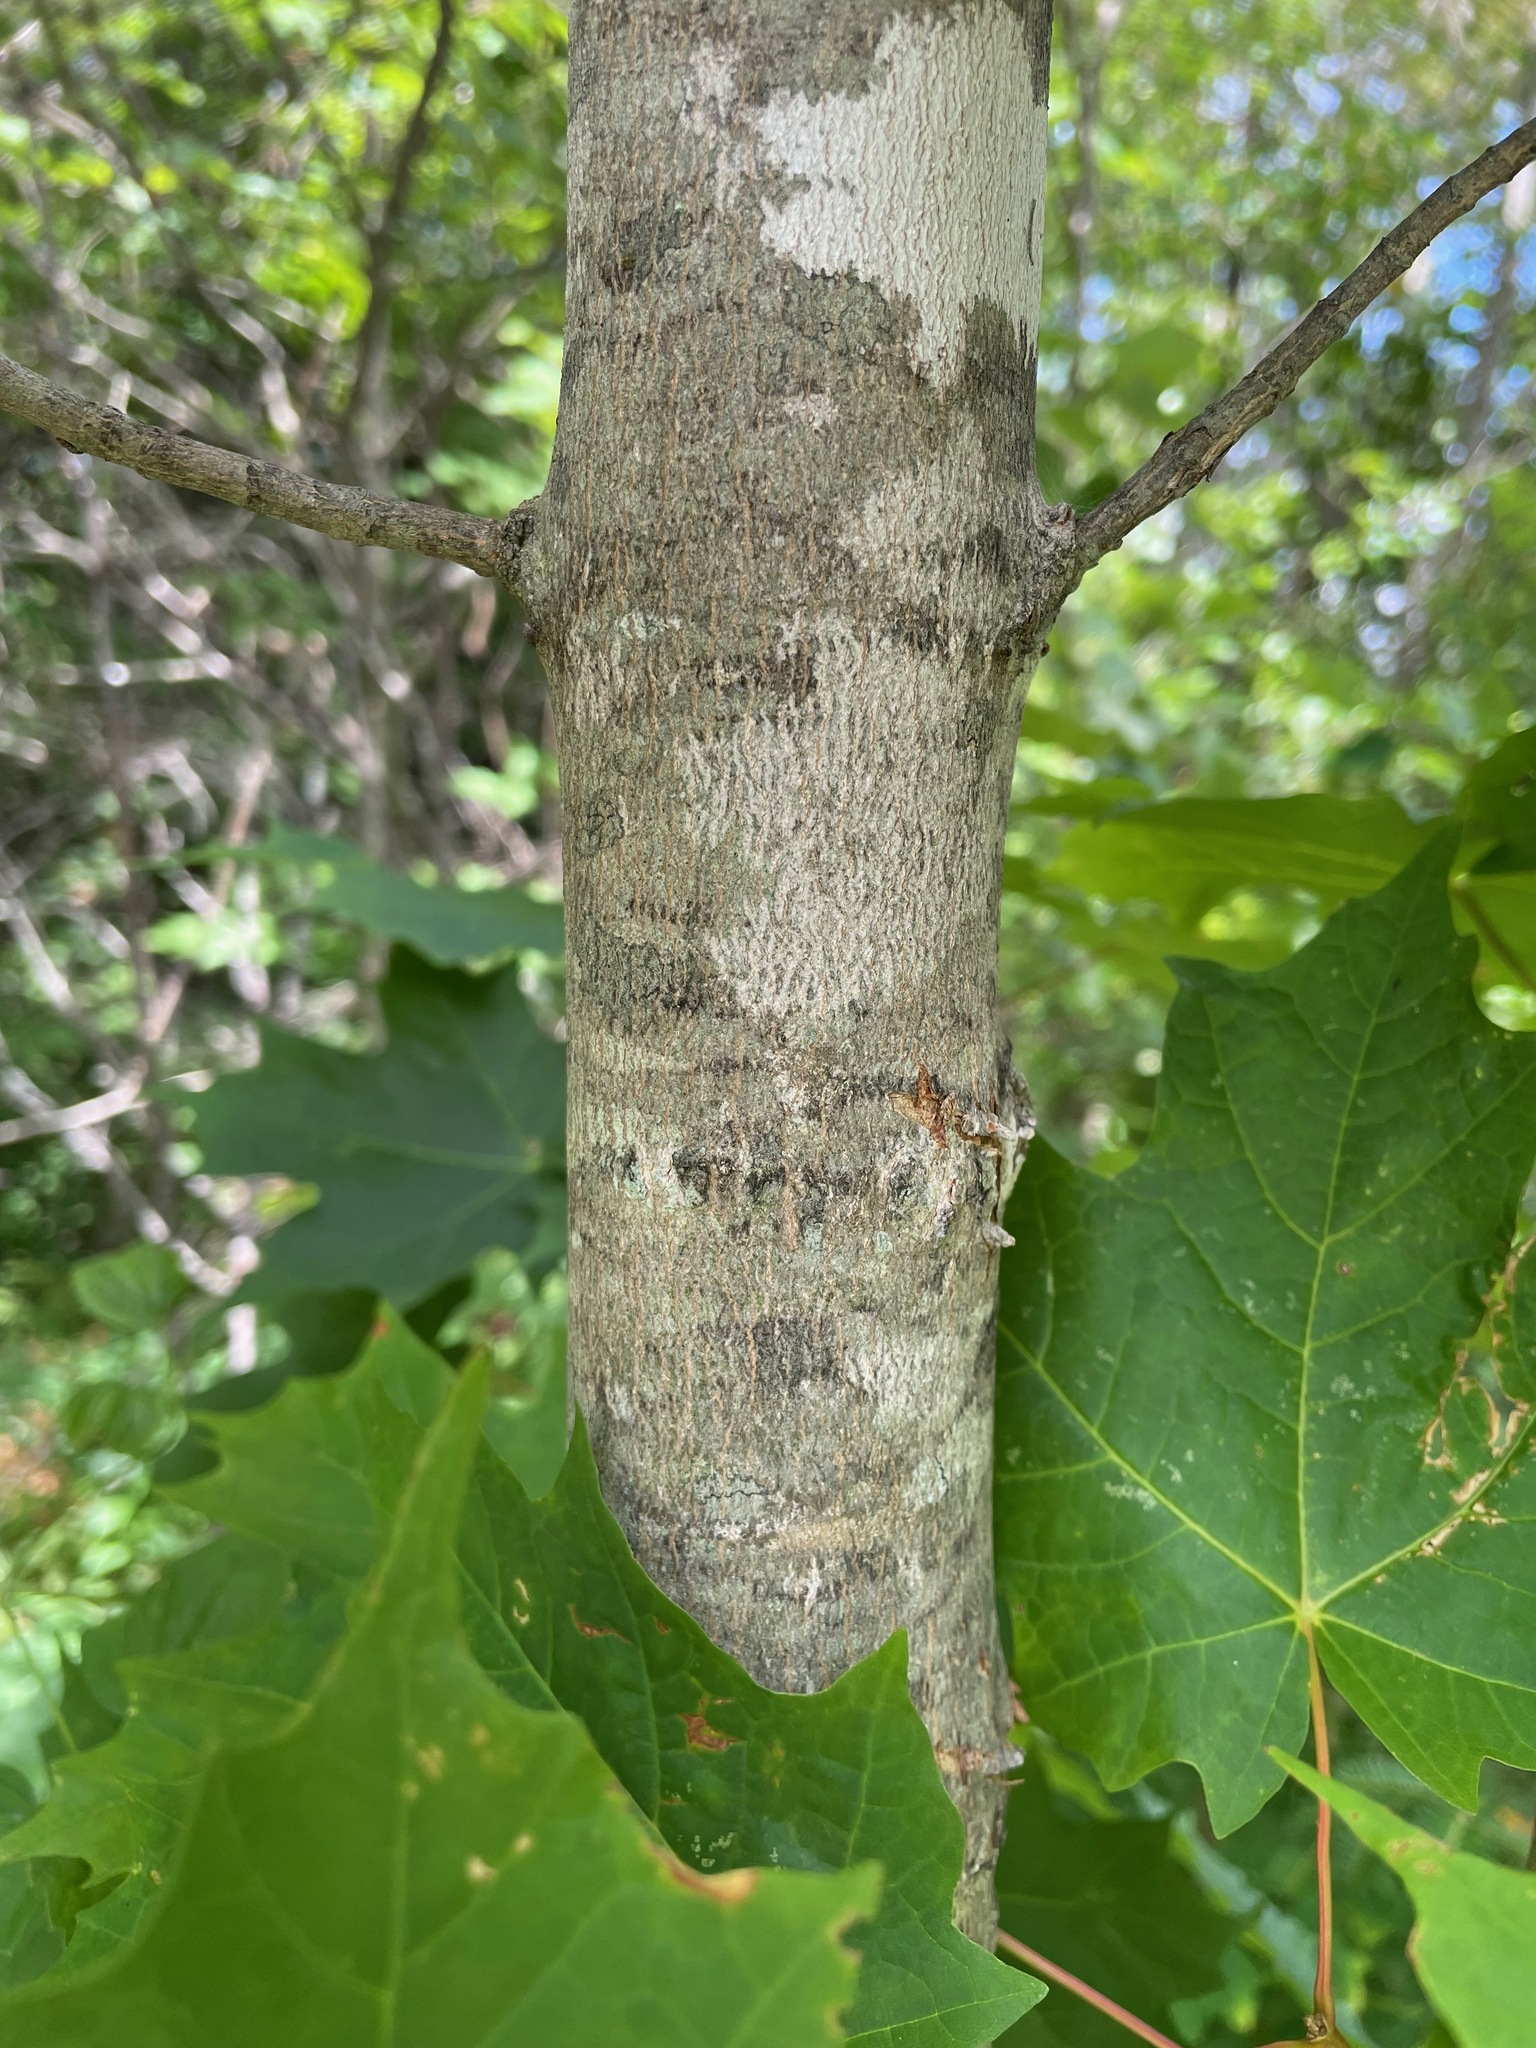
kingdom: Plantae
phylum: Tracheophyta
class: Magnoliopsida
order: Sapindales
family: Sapindaceae
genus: Acer
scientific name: Acer saccharum
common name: Sugar maple
